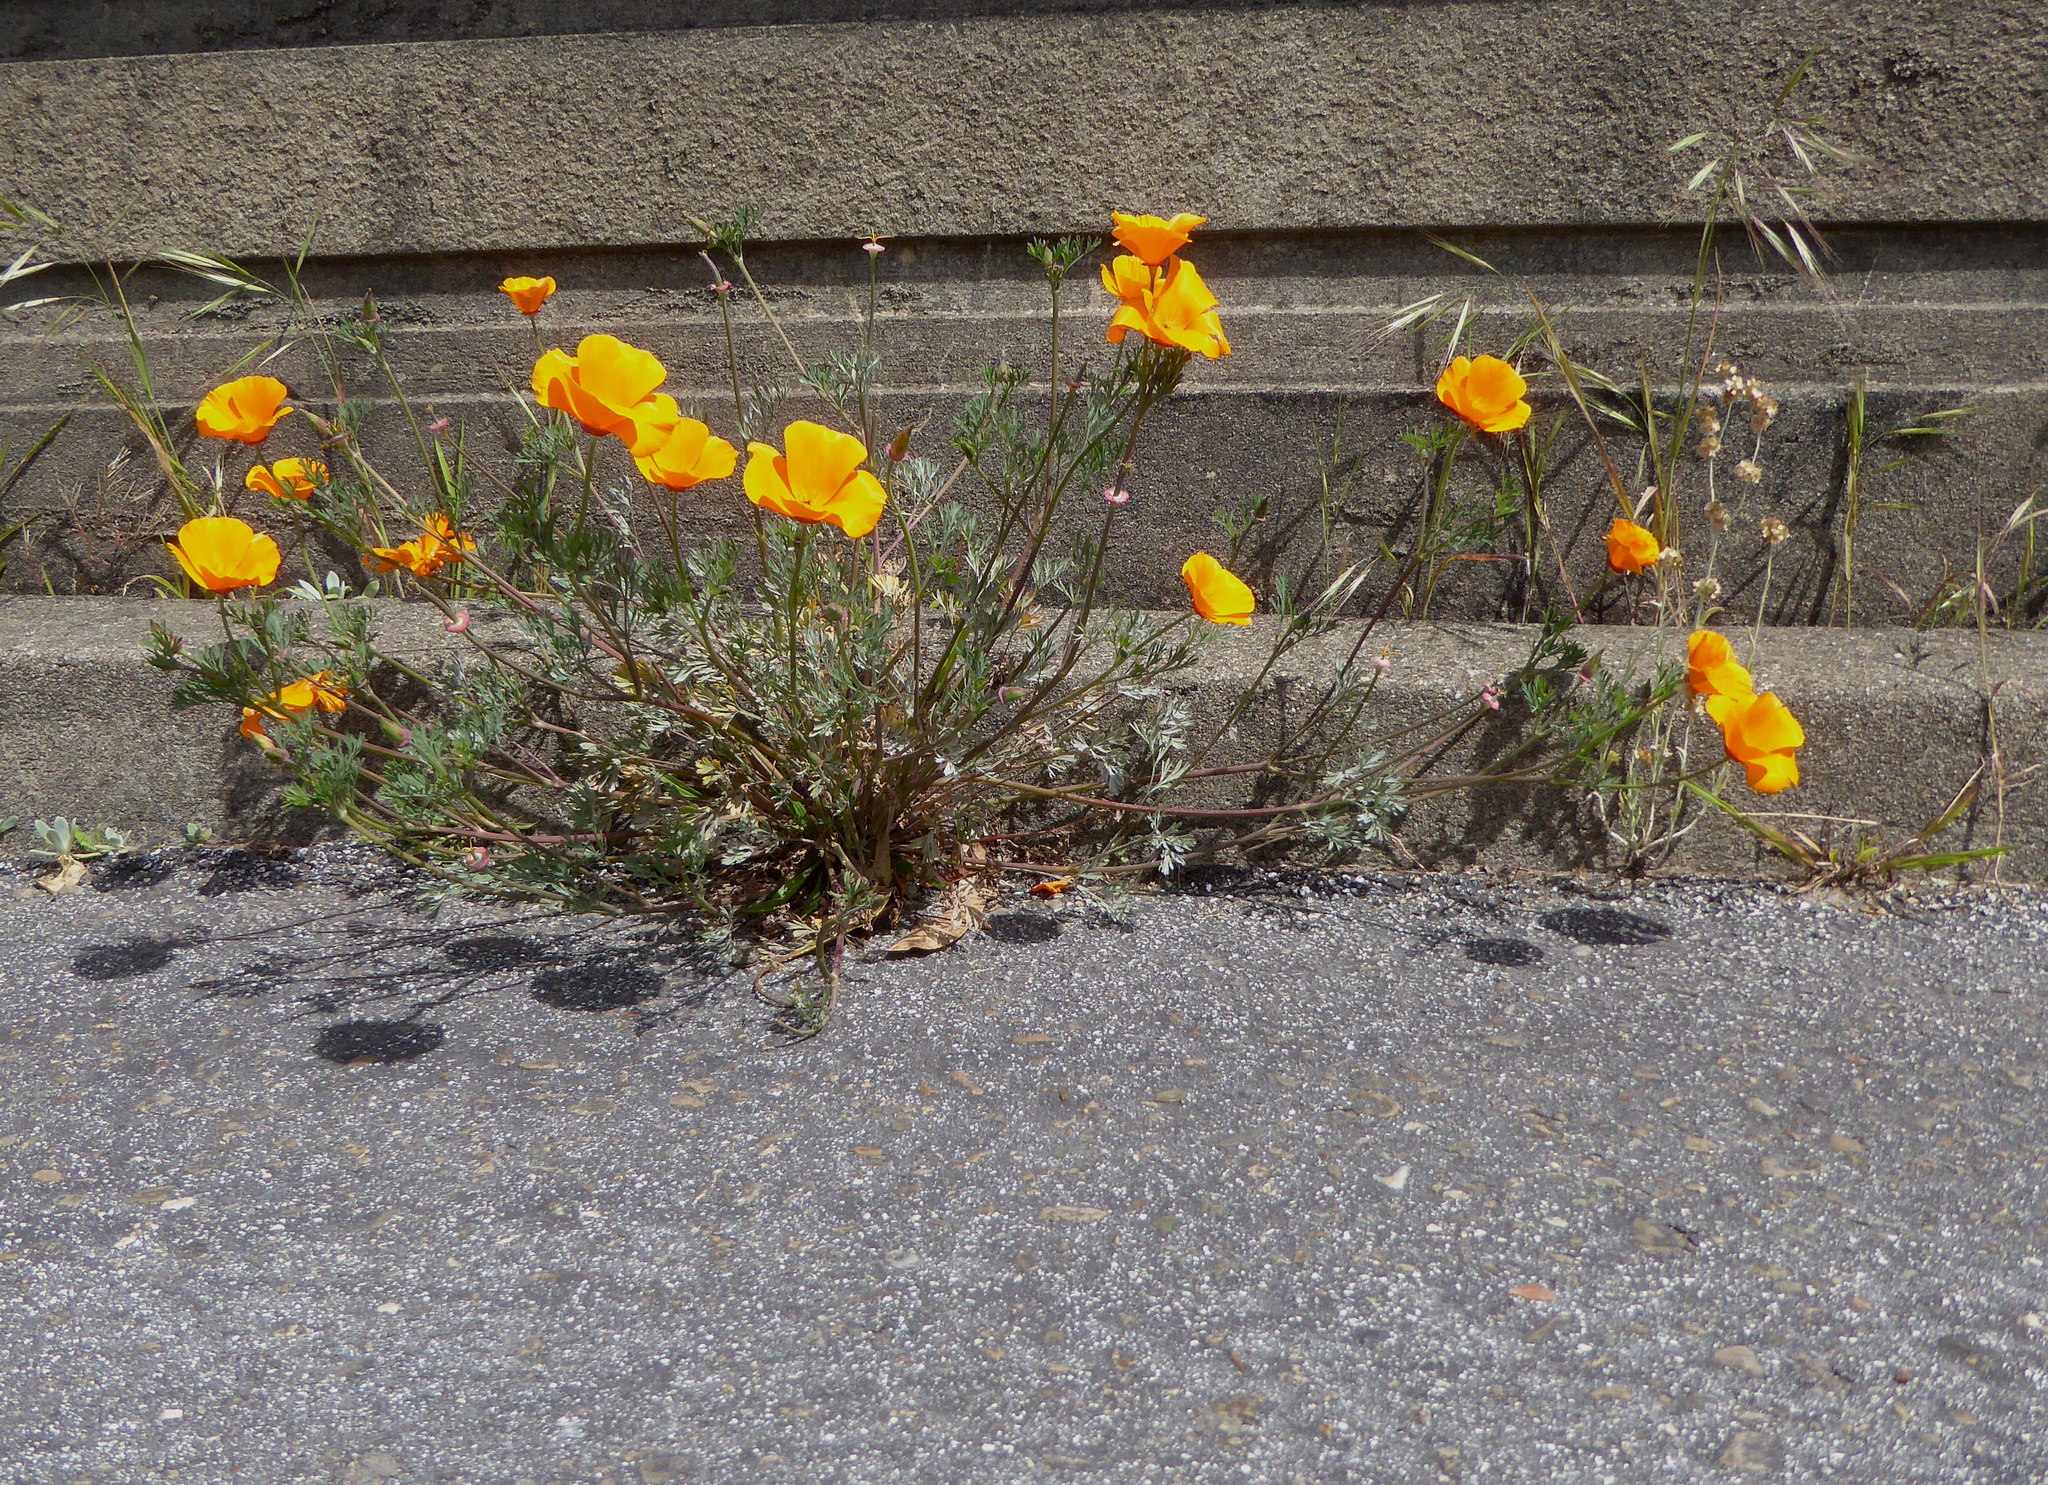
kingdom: Plantae
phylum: Tracheophyta
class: Magnoliopsida
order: Ranunculales
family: Papaveraceae
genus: Eschscholzia
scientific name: Eschscholzia californica
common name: California poppy
